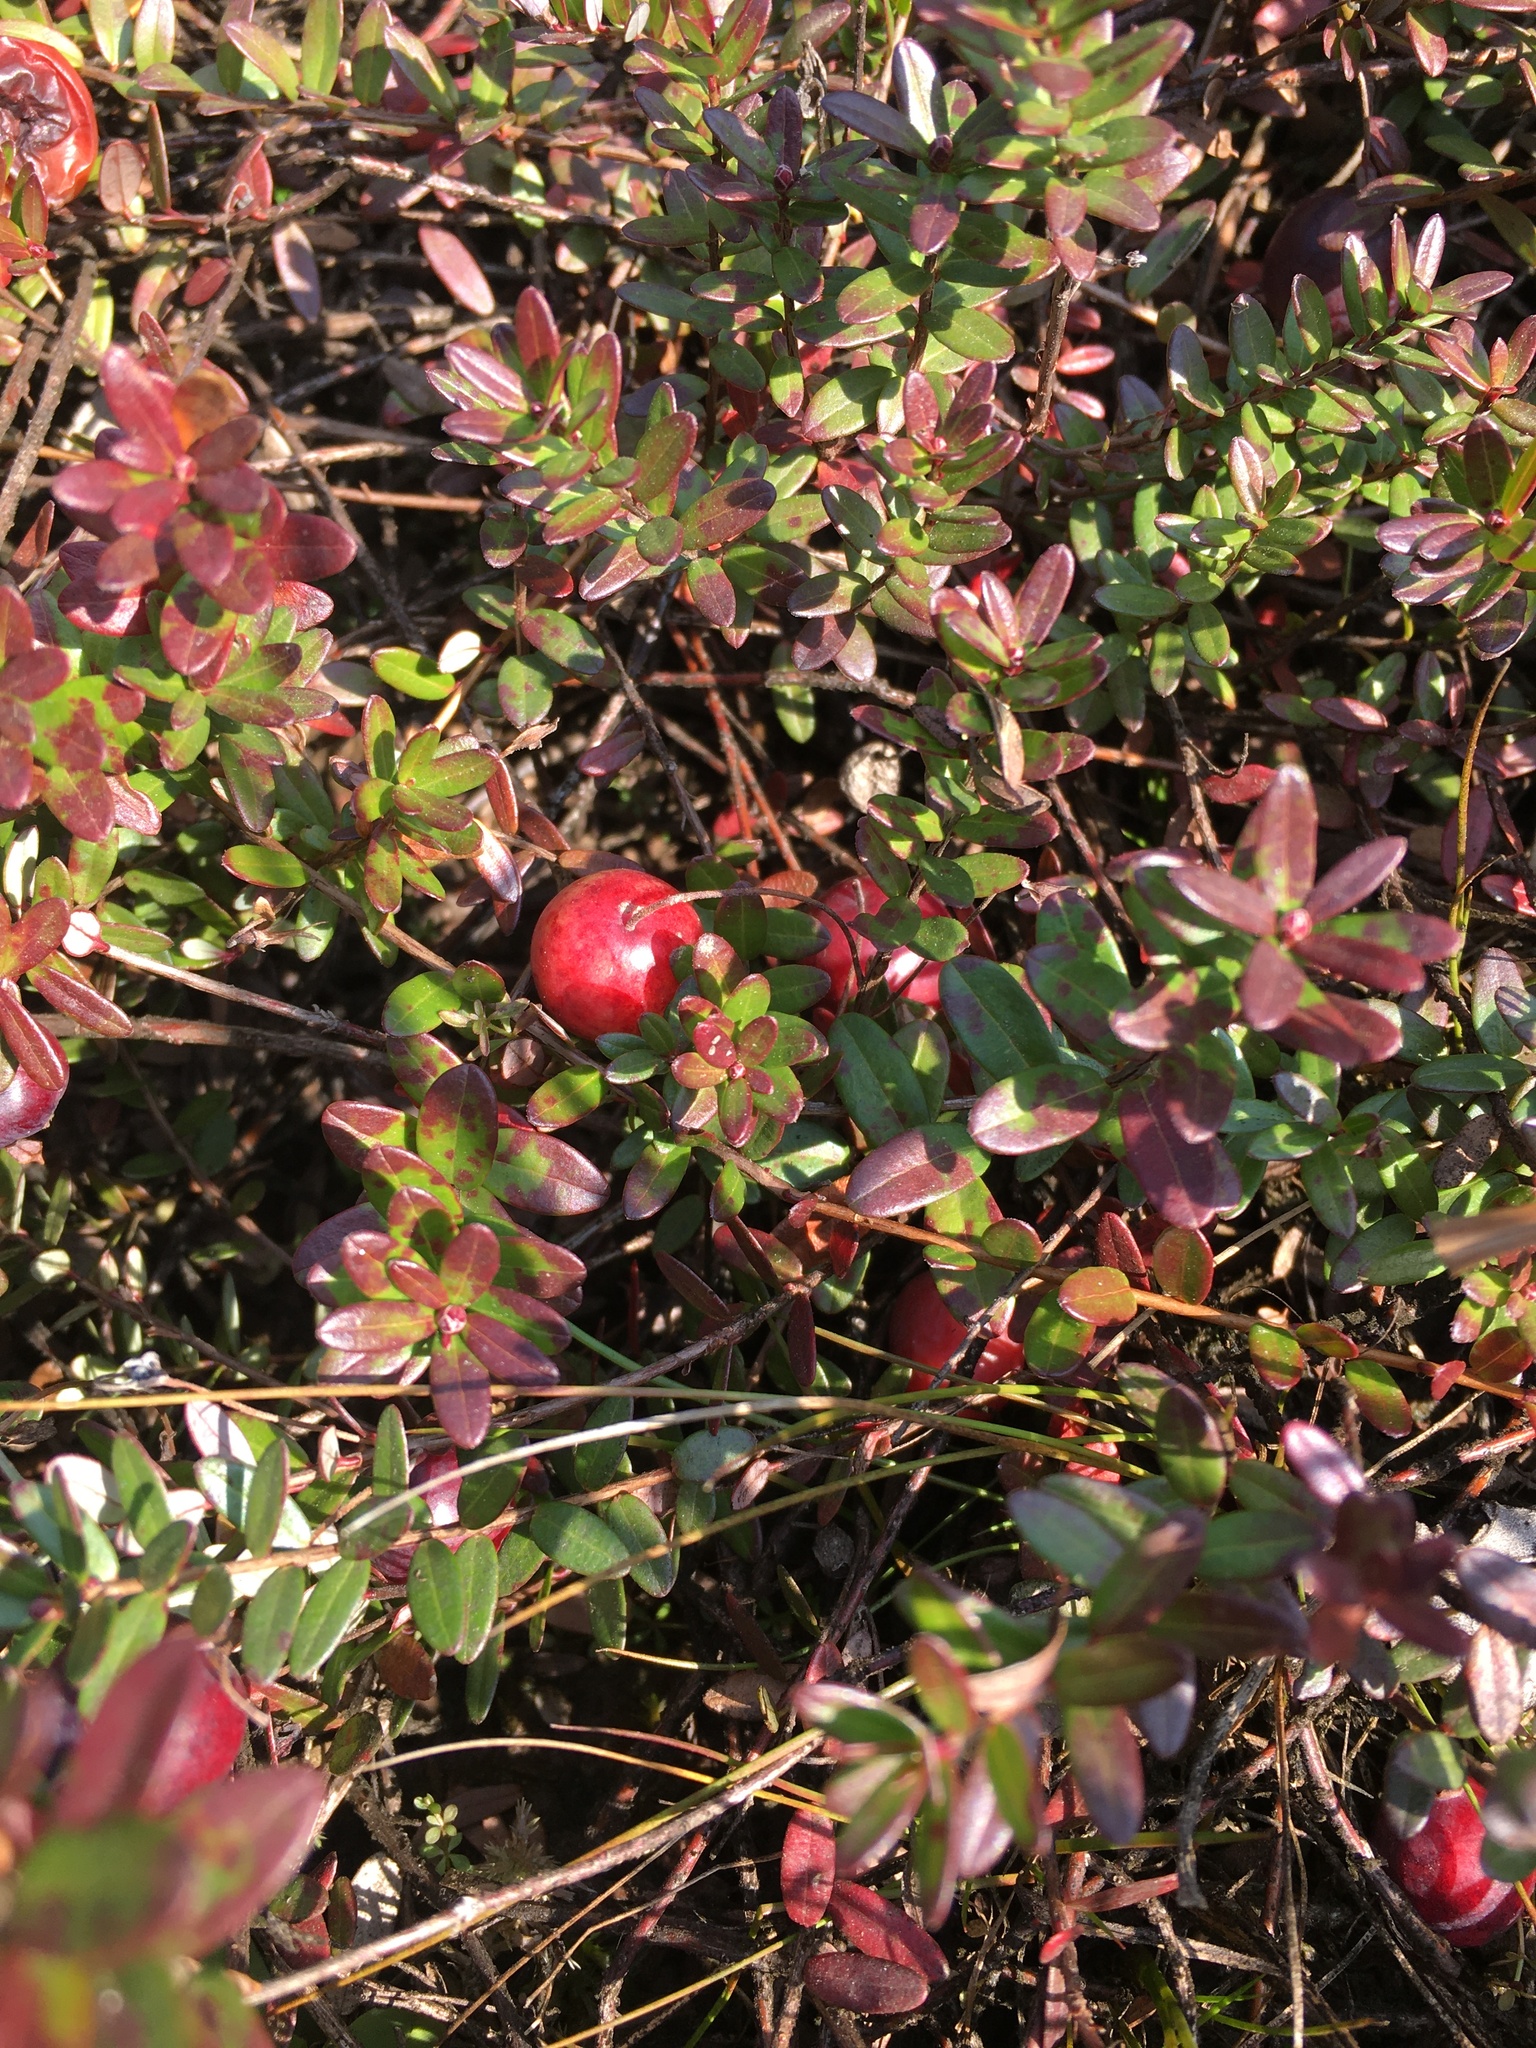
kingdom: Plantae
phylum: Tracheophyta
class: Magnoliopsida
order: Ericales
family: Ericaceae
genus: Vaccinium
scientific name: Vaccinium macrocarpon
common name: American cranberry
